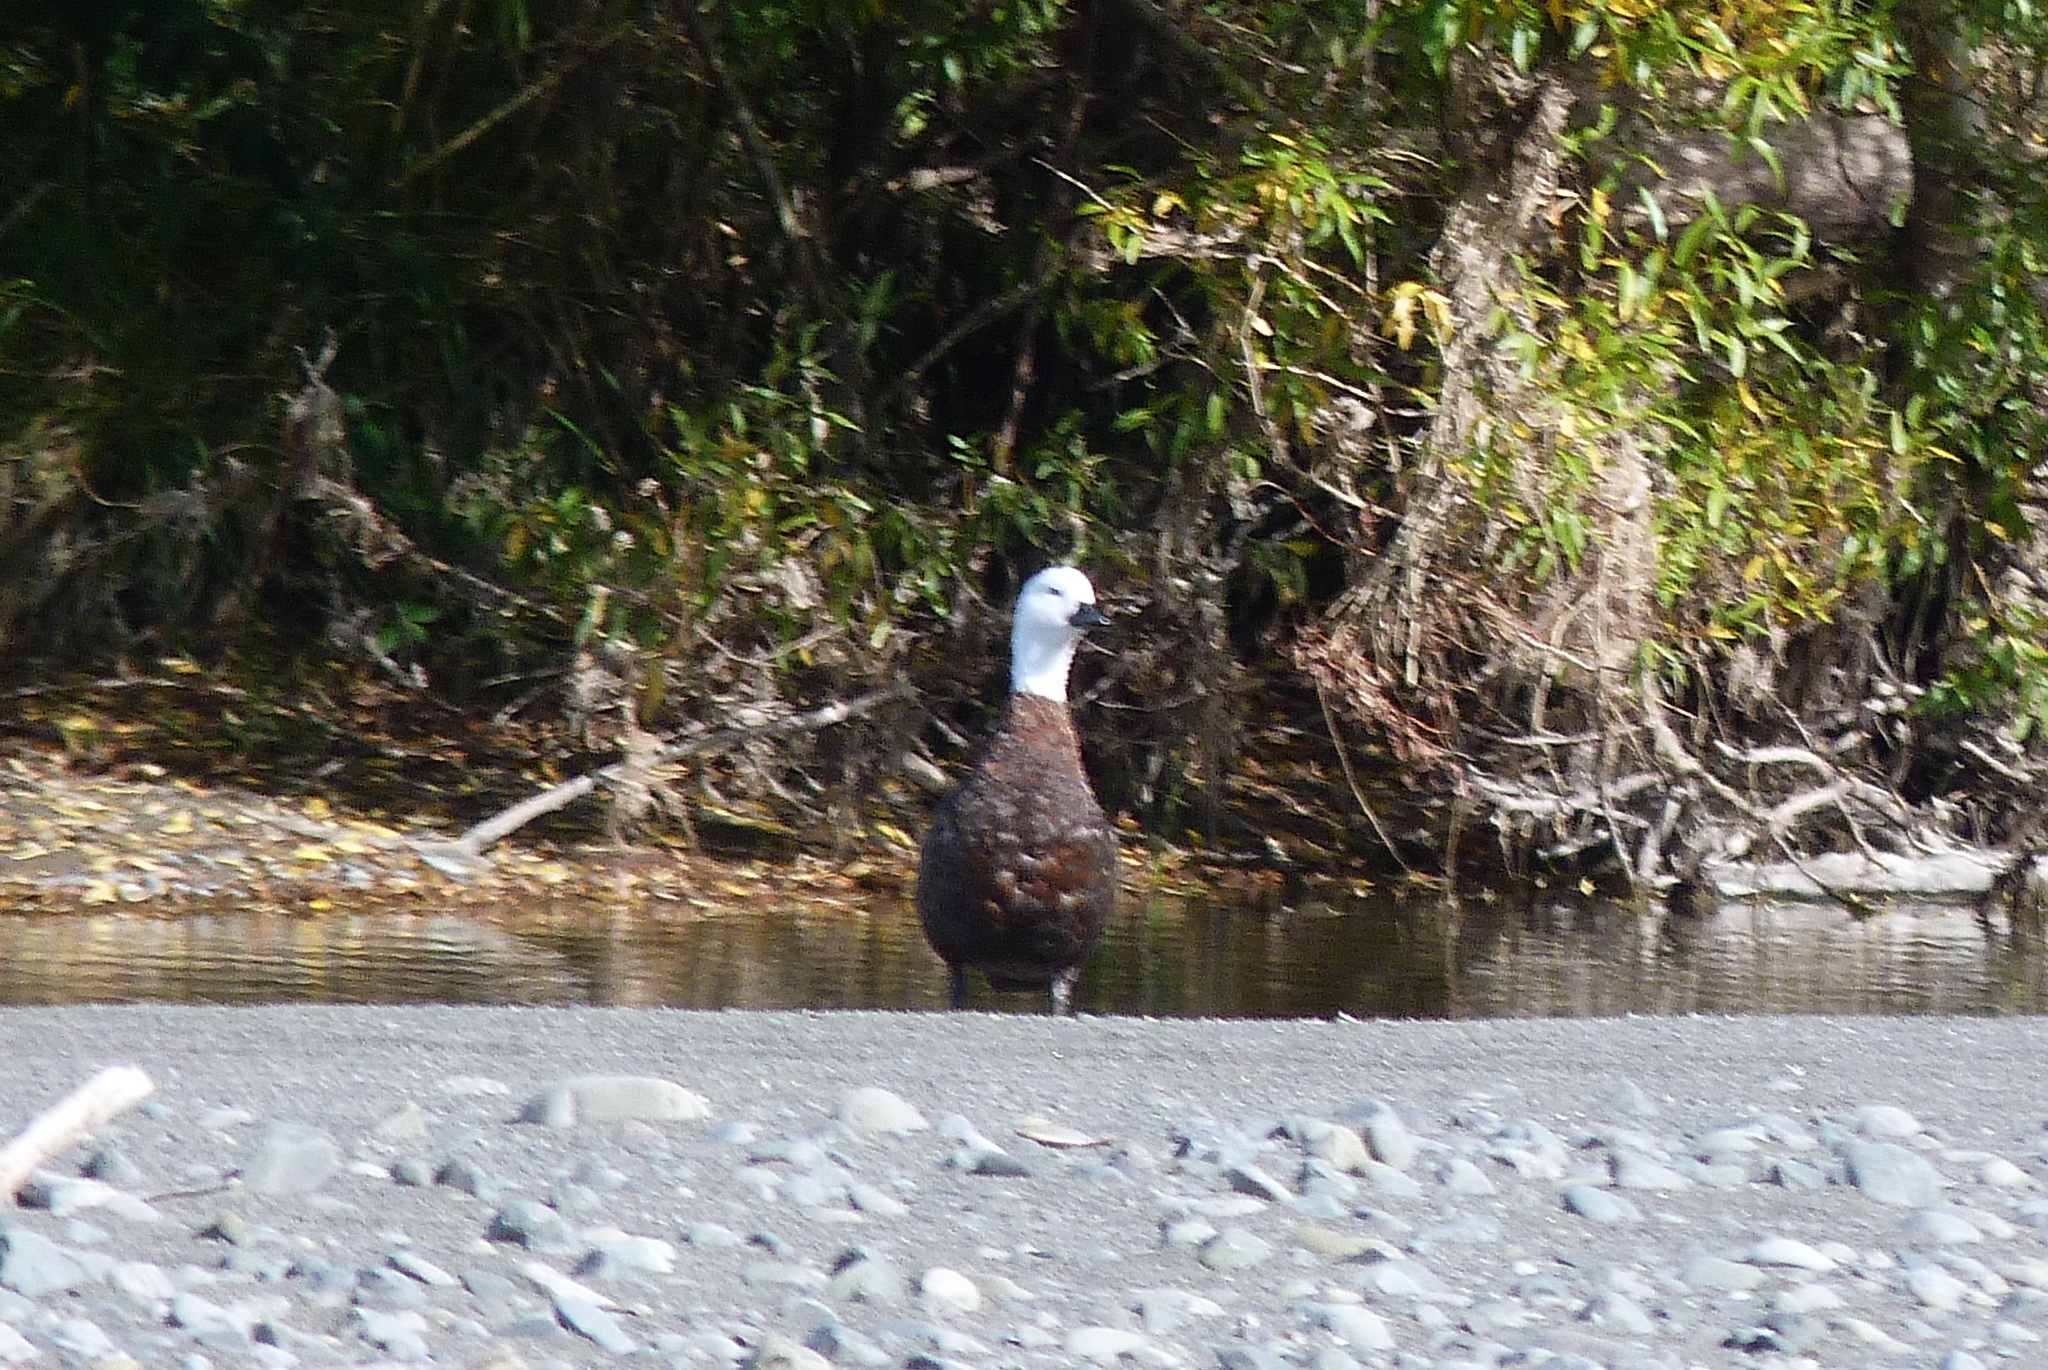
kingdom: Animalia
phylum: Chordata
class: Aves
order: Anseriformes
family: Anatidae
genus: Tadorna
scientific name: Tadorna variegata
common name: Paradise shelduck
